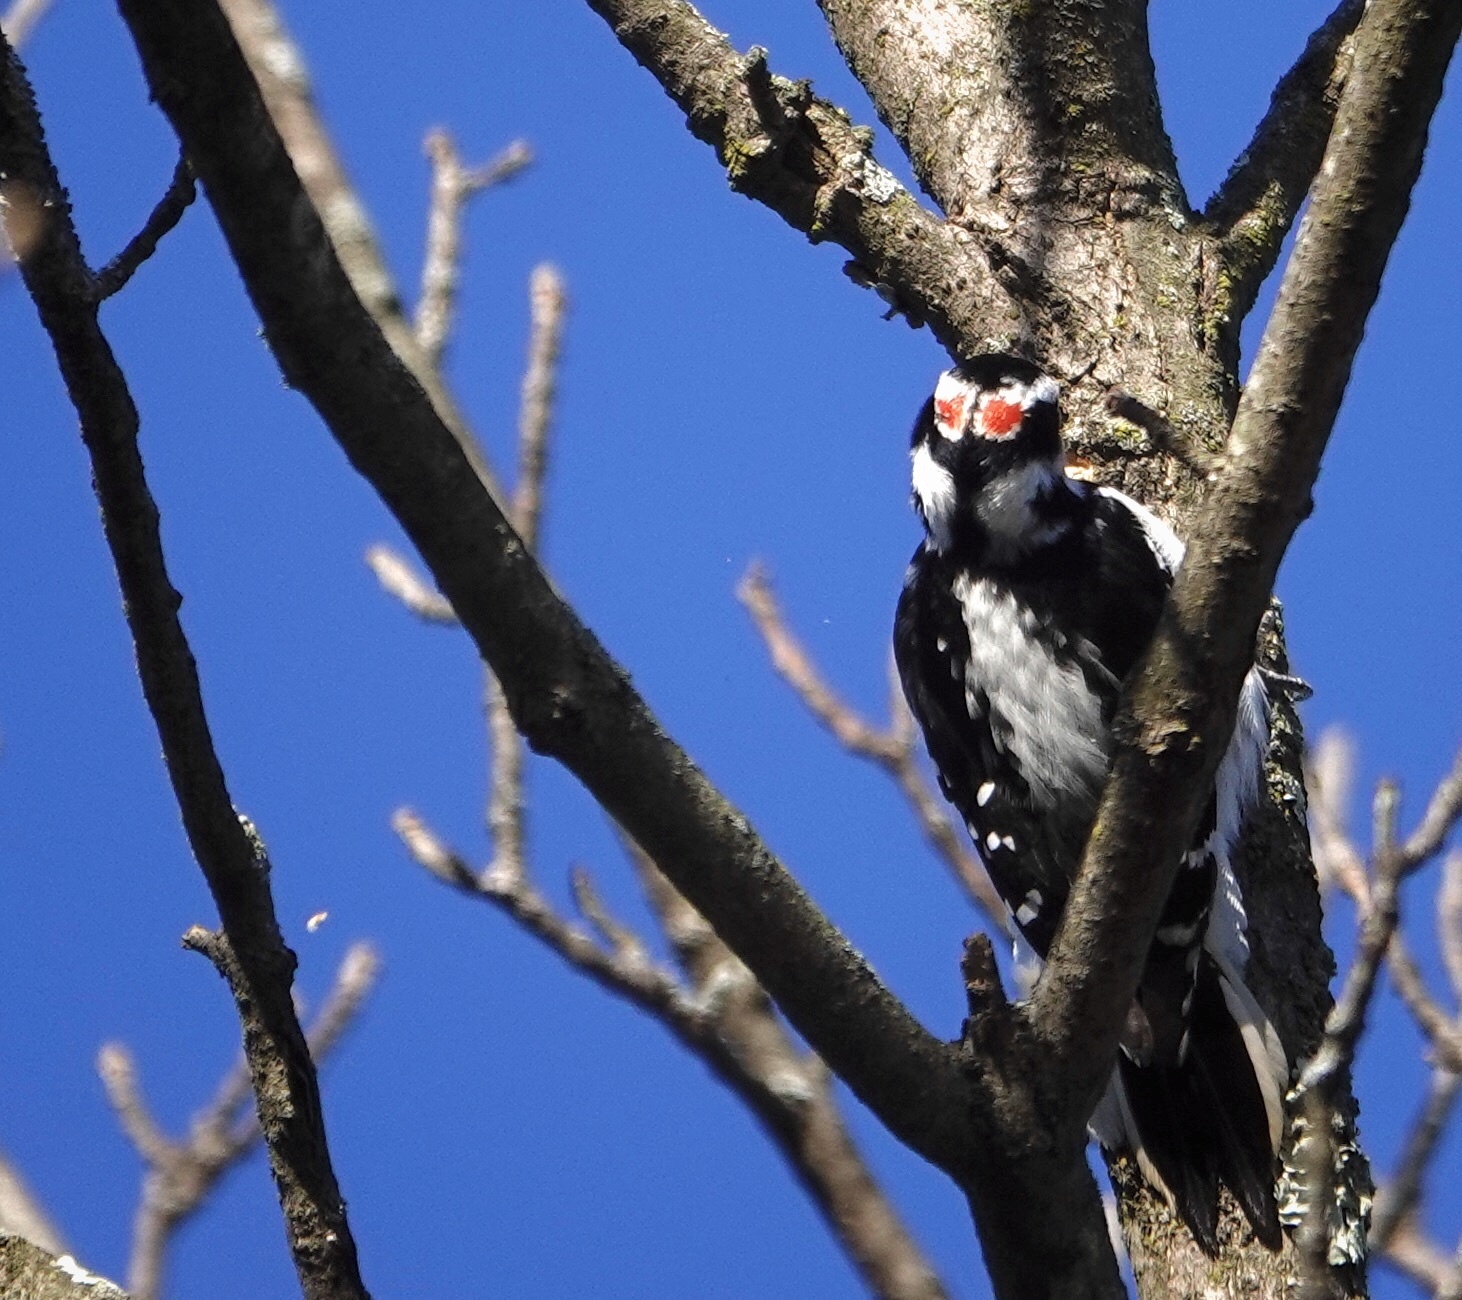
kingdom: Animalia
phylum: Chordata
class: Aves
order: Piciformes
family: Picidae
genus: Leuconotopicus
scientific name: Leuconotopicus villosus
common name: Hairy woodpecker
